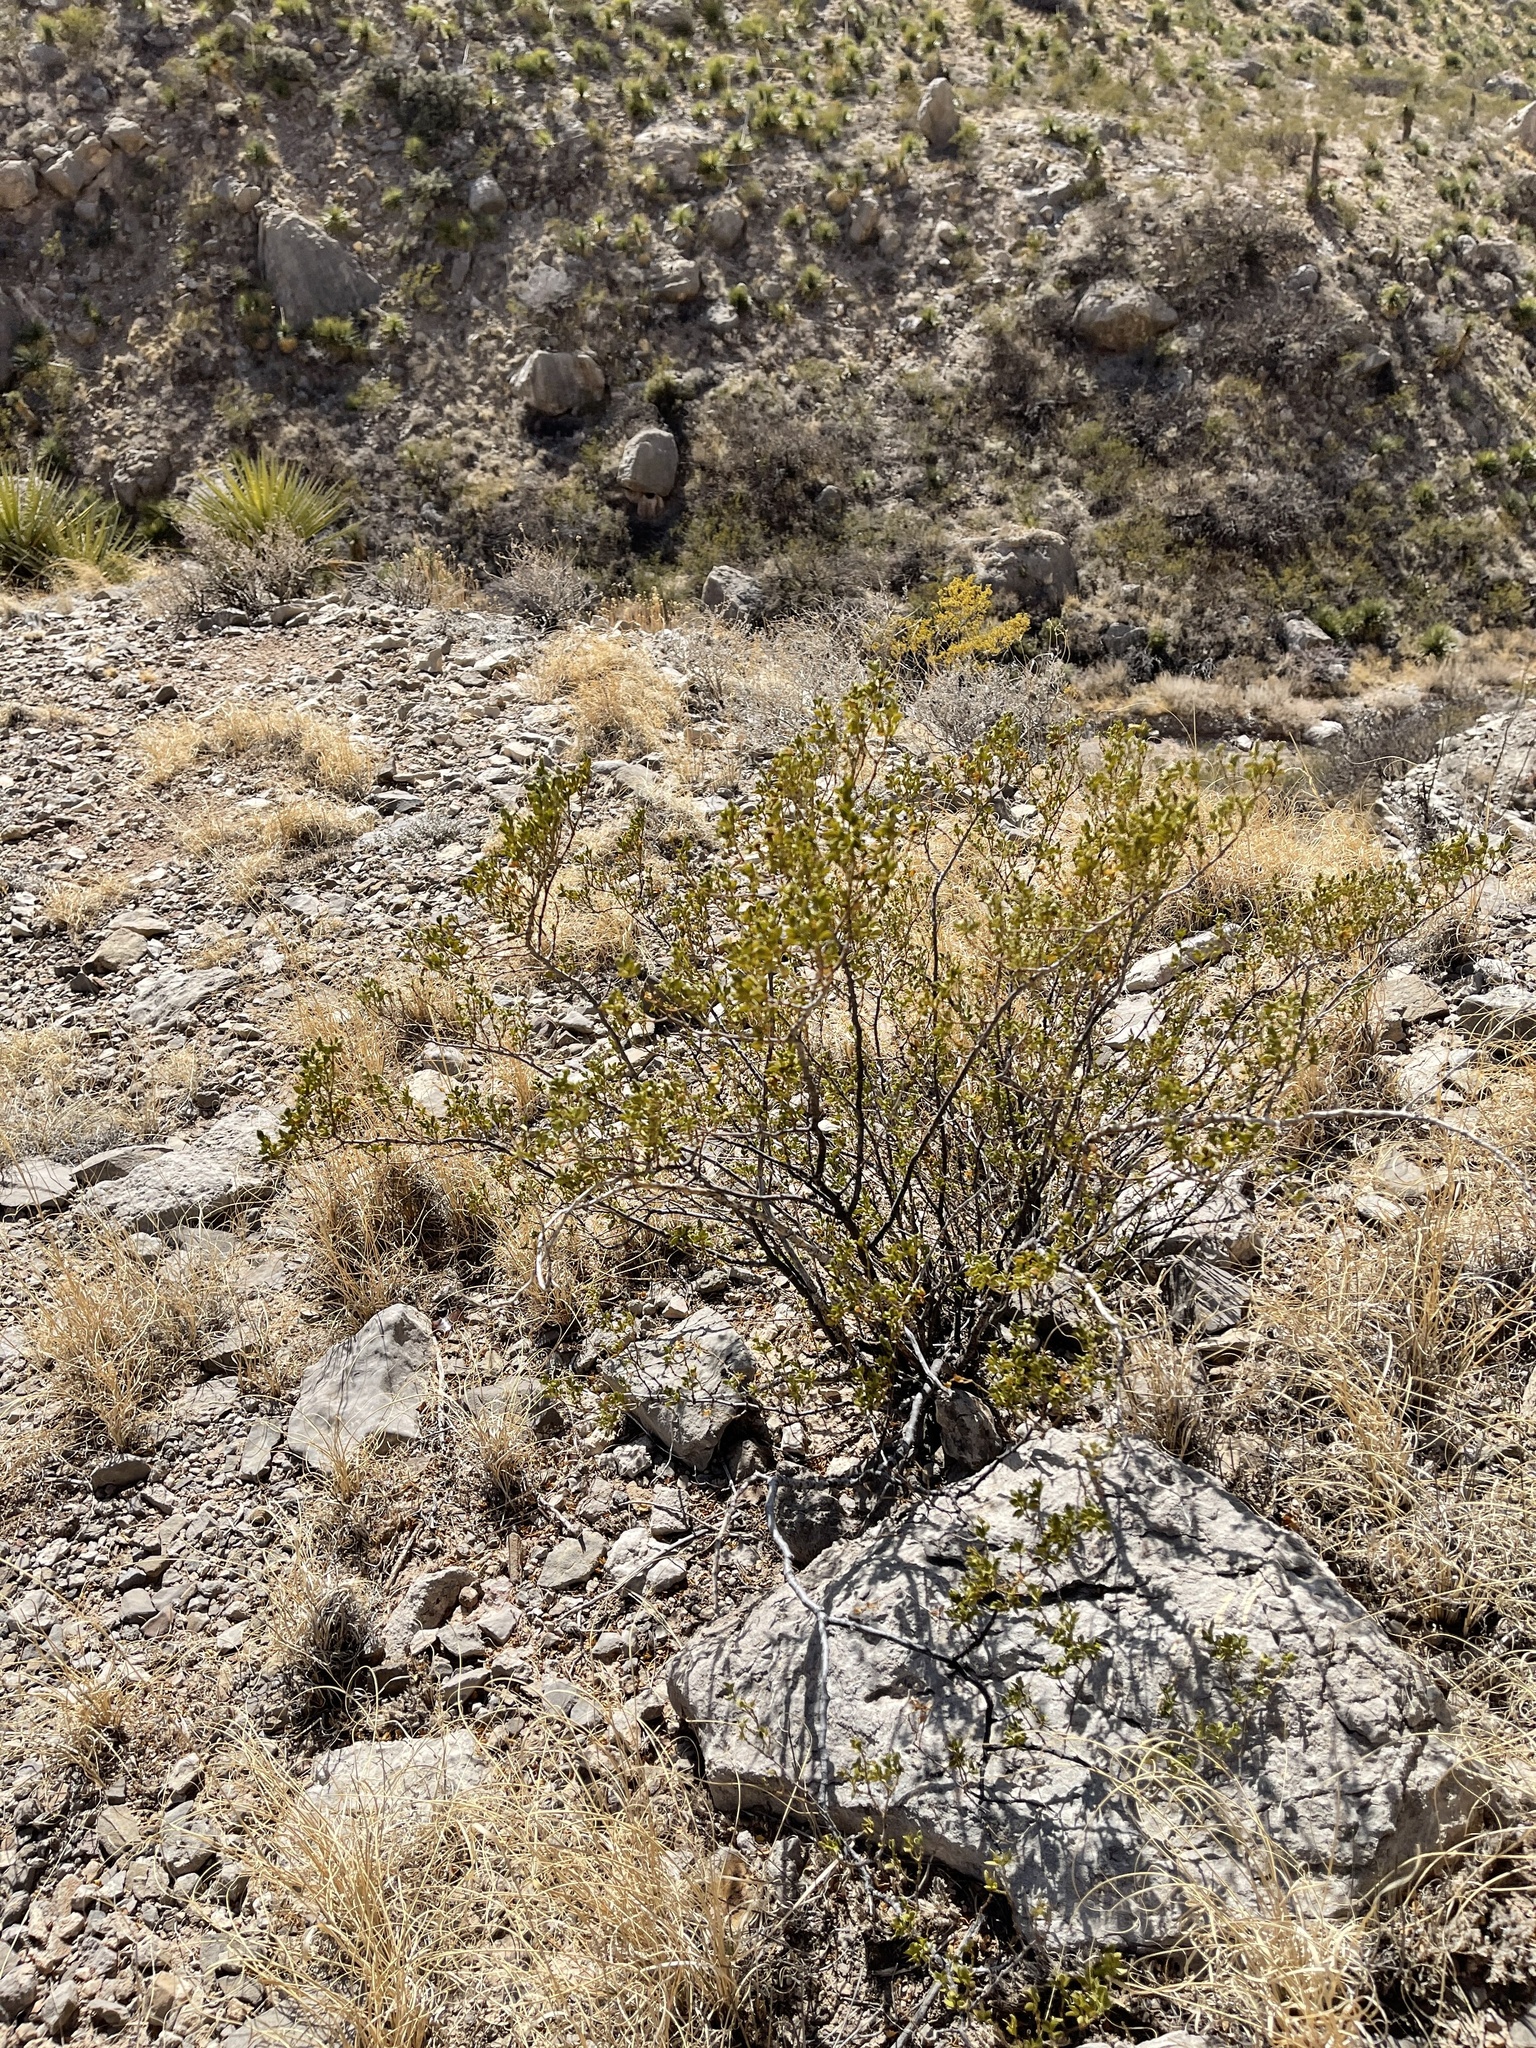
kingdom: Plantae
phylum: Tracheophyta
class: Magnoliopsida
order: Zygophyllales
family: Zygophyllaceae
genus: Larrea
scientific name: Larrea tridentata
